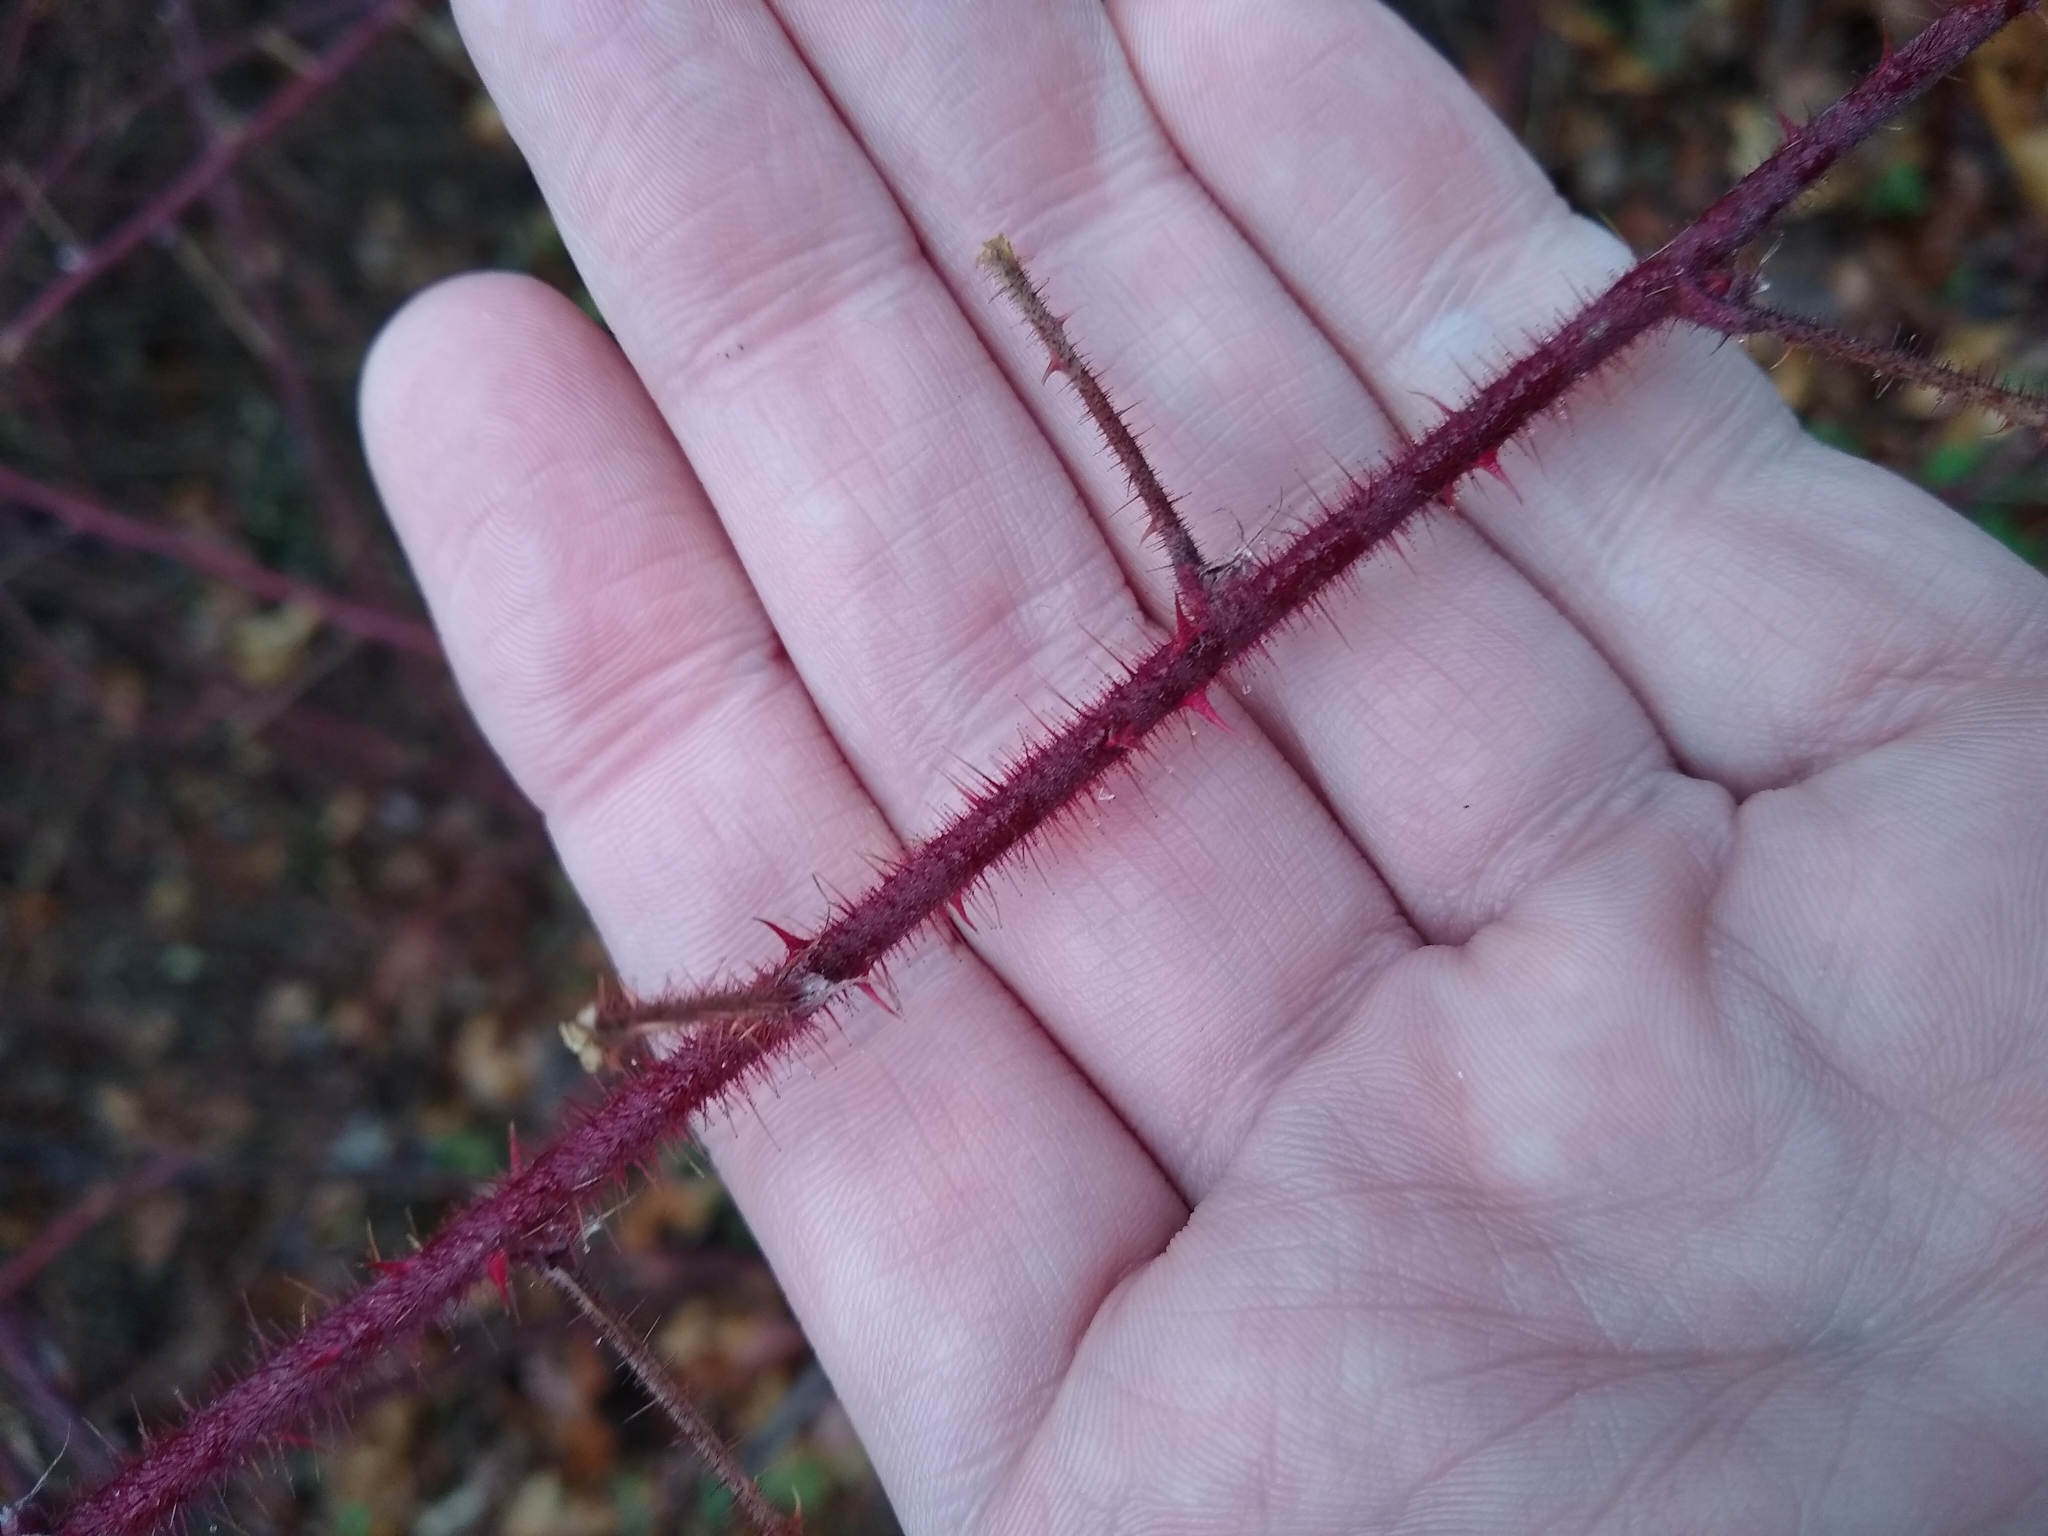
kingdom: Plantae
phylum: Tracheophyta
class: Magnoliopsida
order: Rosales
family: Rosaceae
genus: Rubus
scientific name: Rubus phoenicolasius
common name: Japanese wineberry
